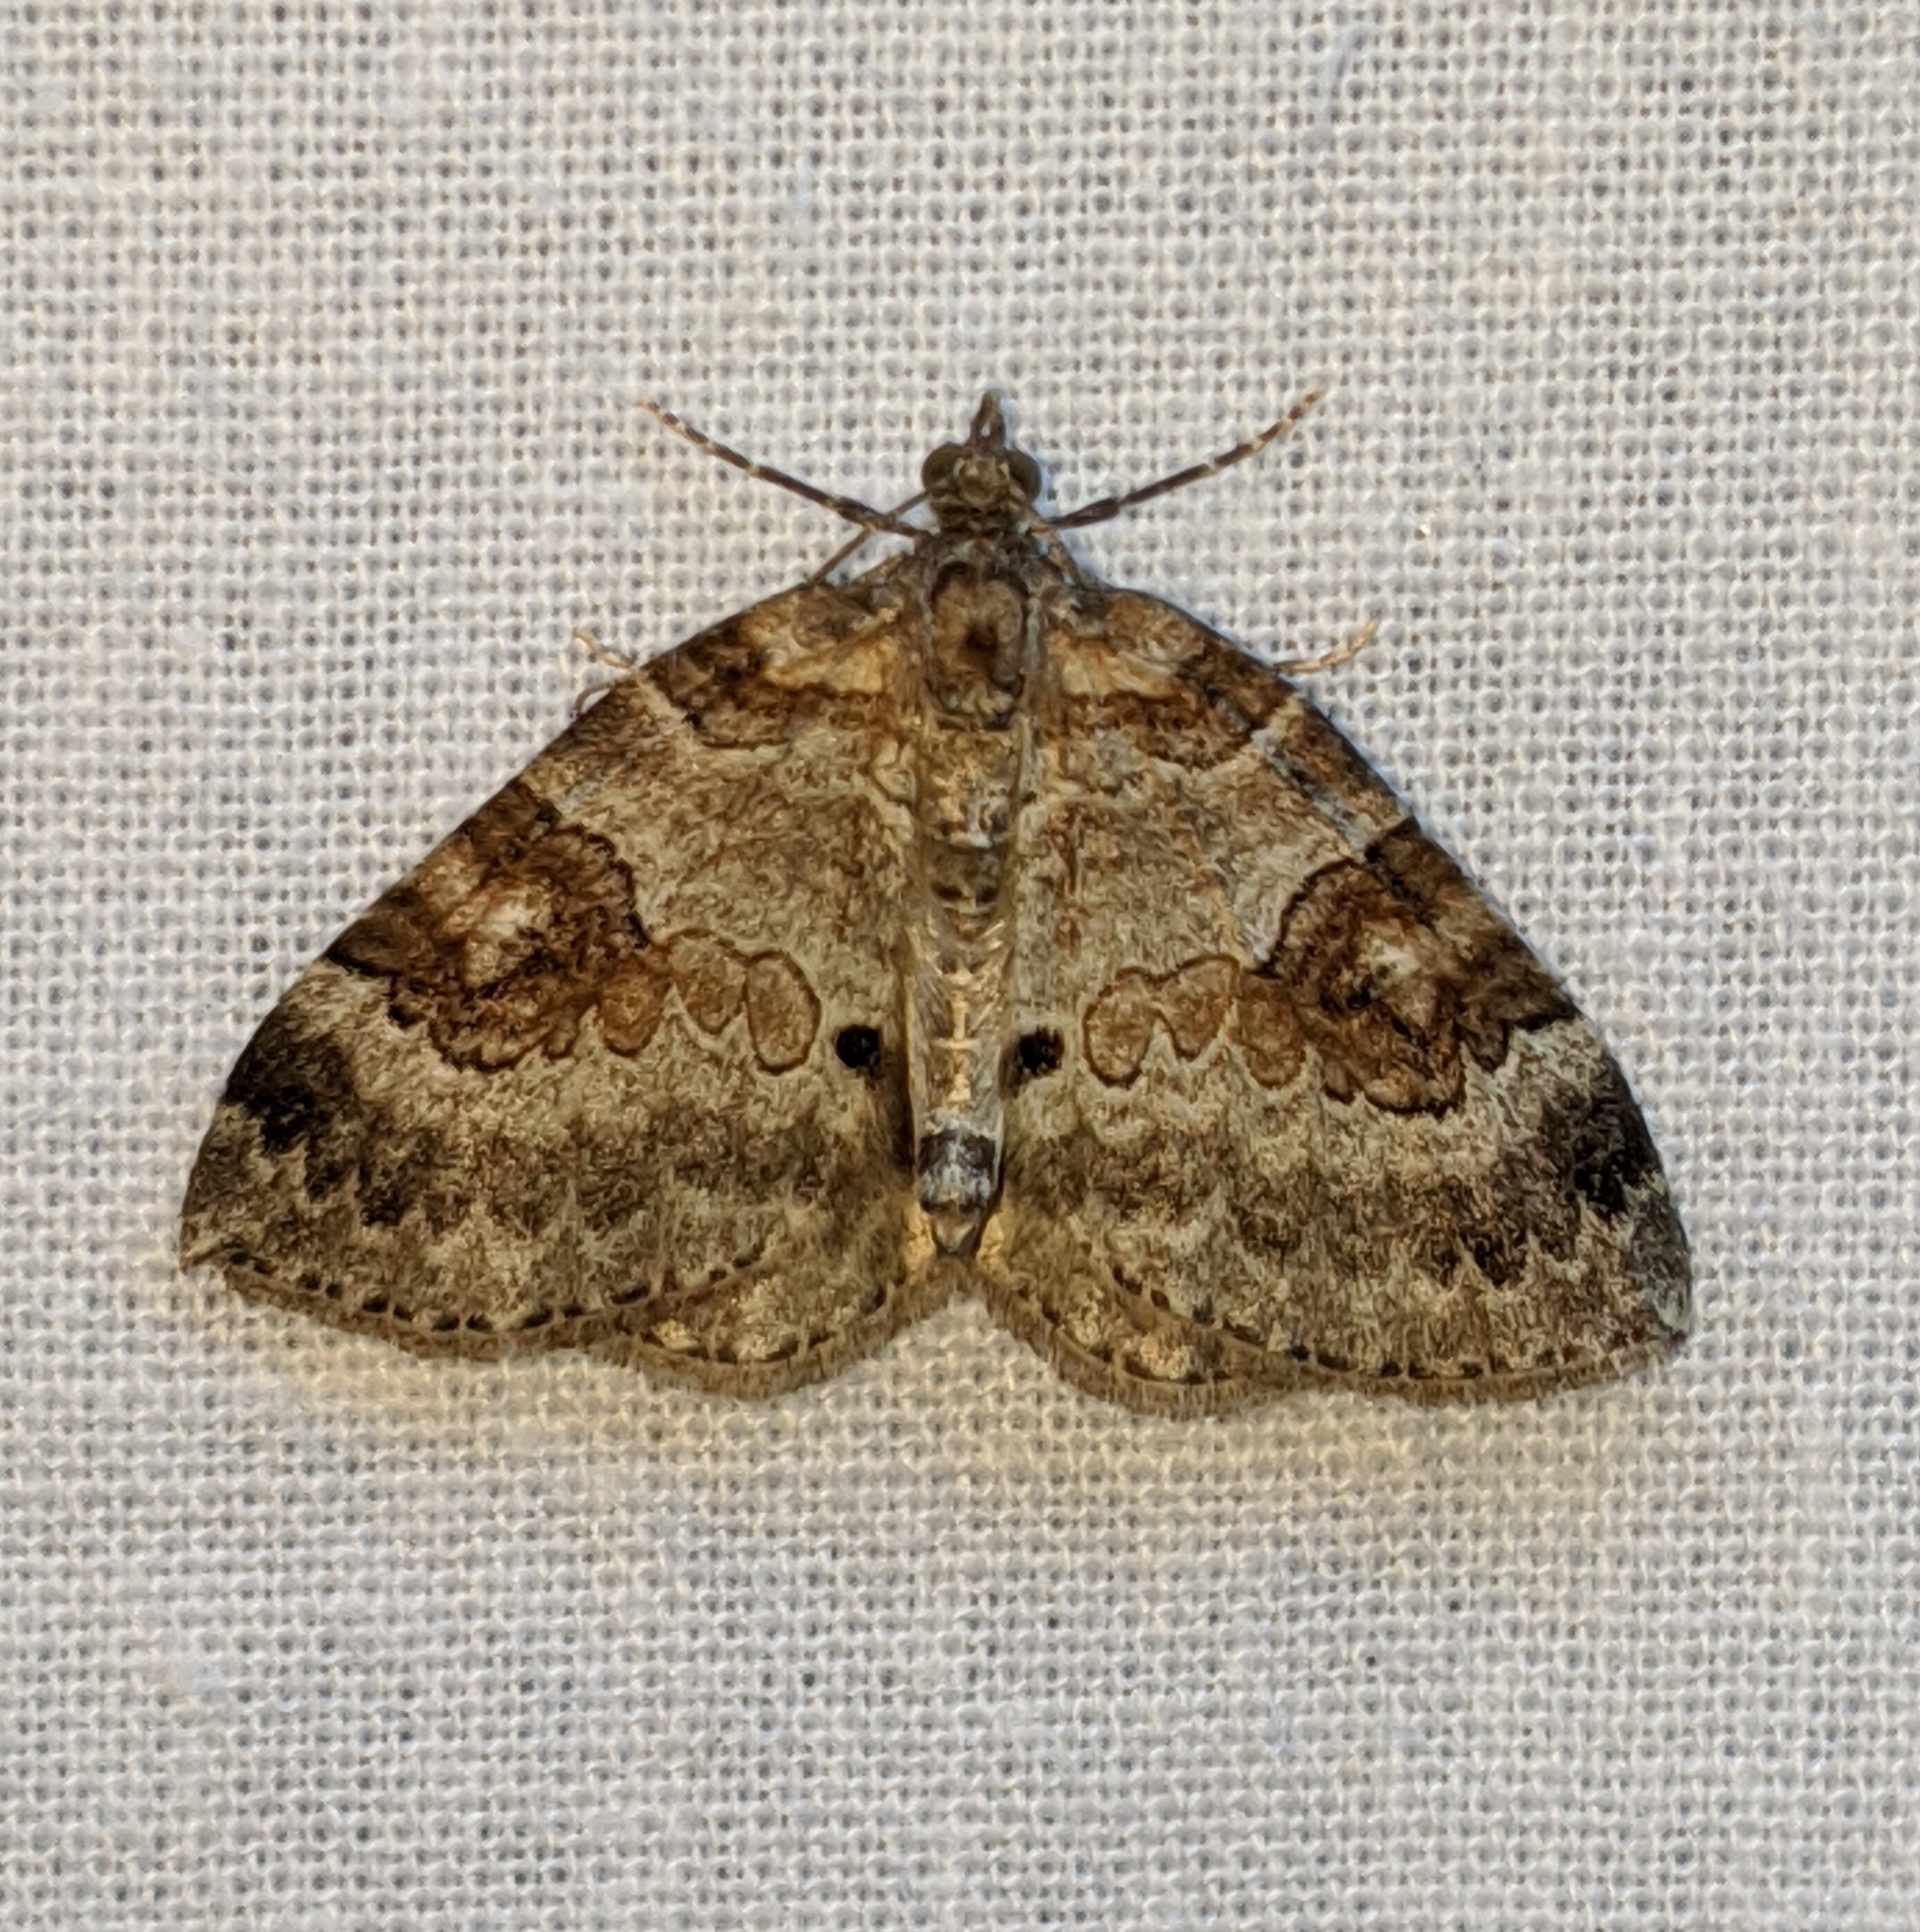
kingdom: Animalia
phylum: Arthropoda
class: Insecta
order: Lepidoptera
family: Geometridae
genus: Plemyria
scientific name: Plemyria georgii
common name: George's carpet moth
